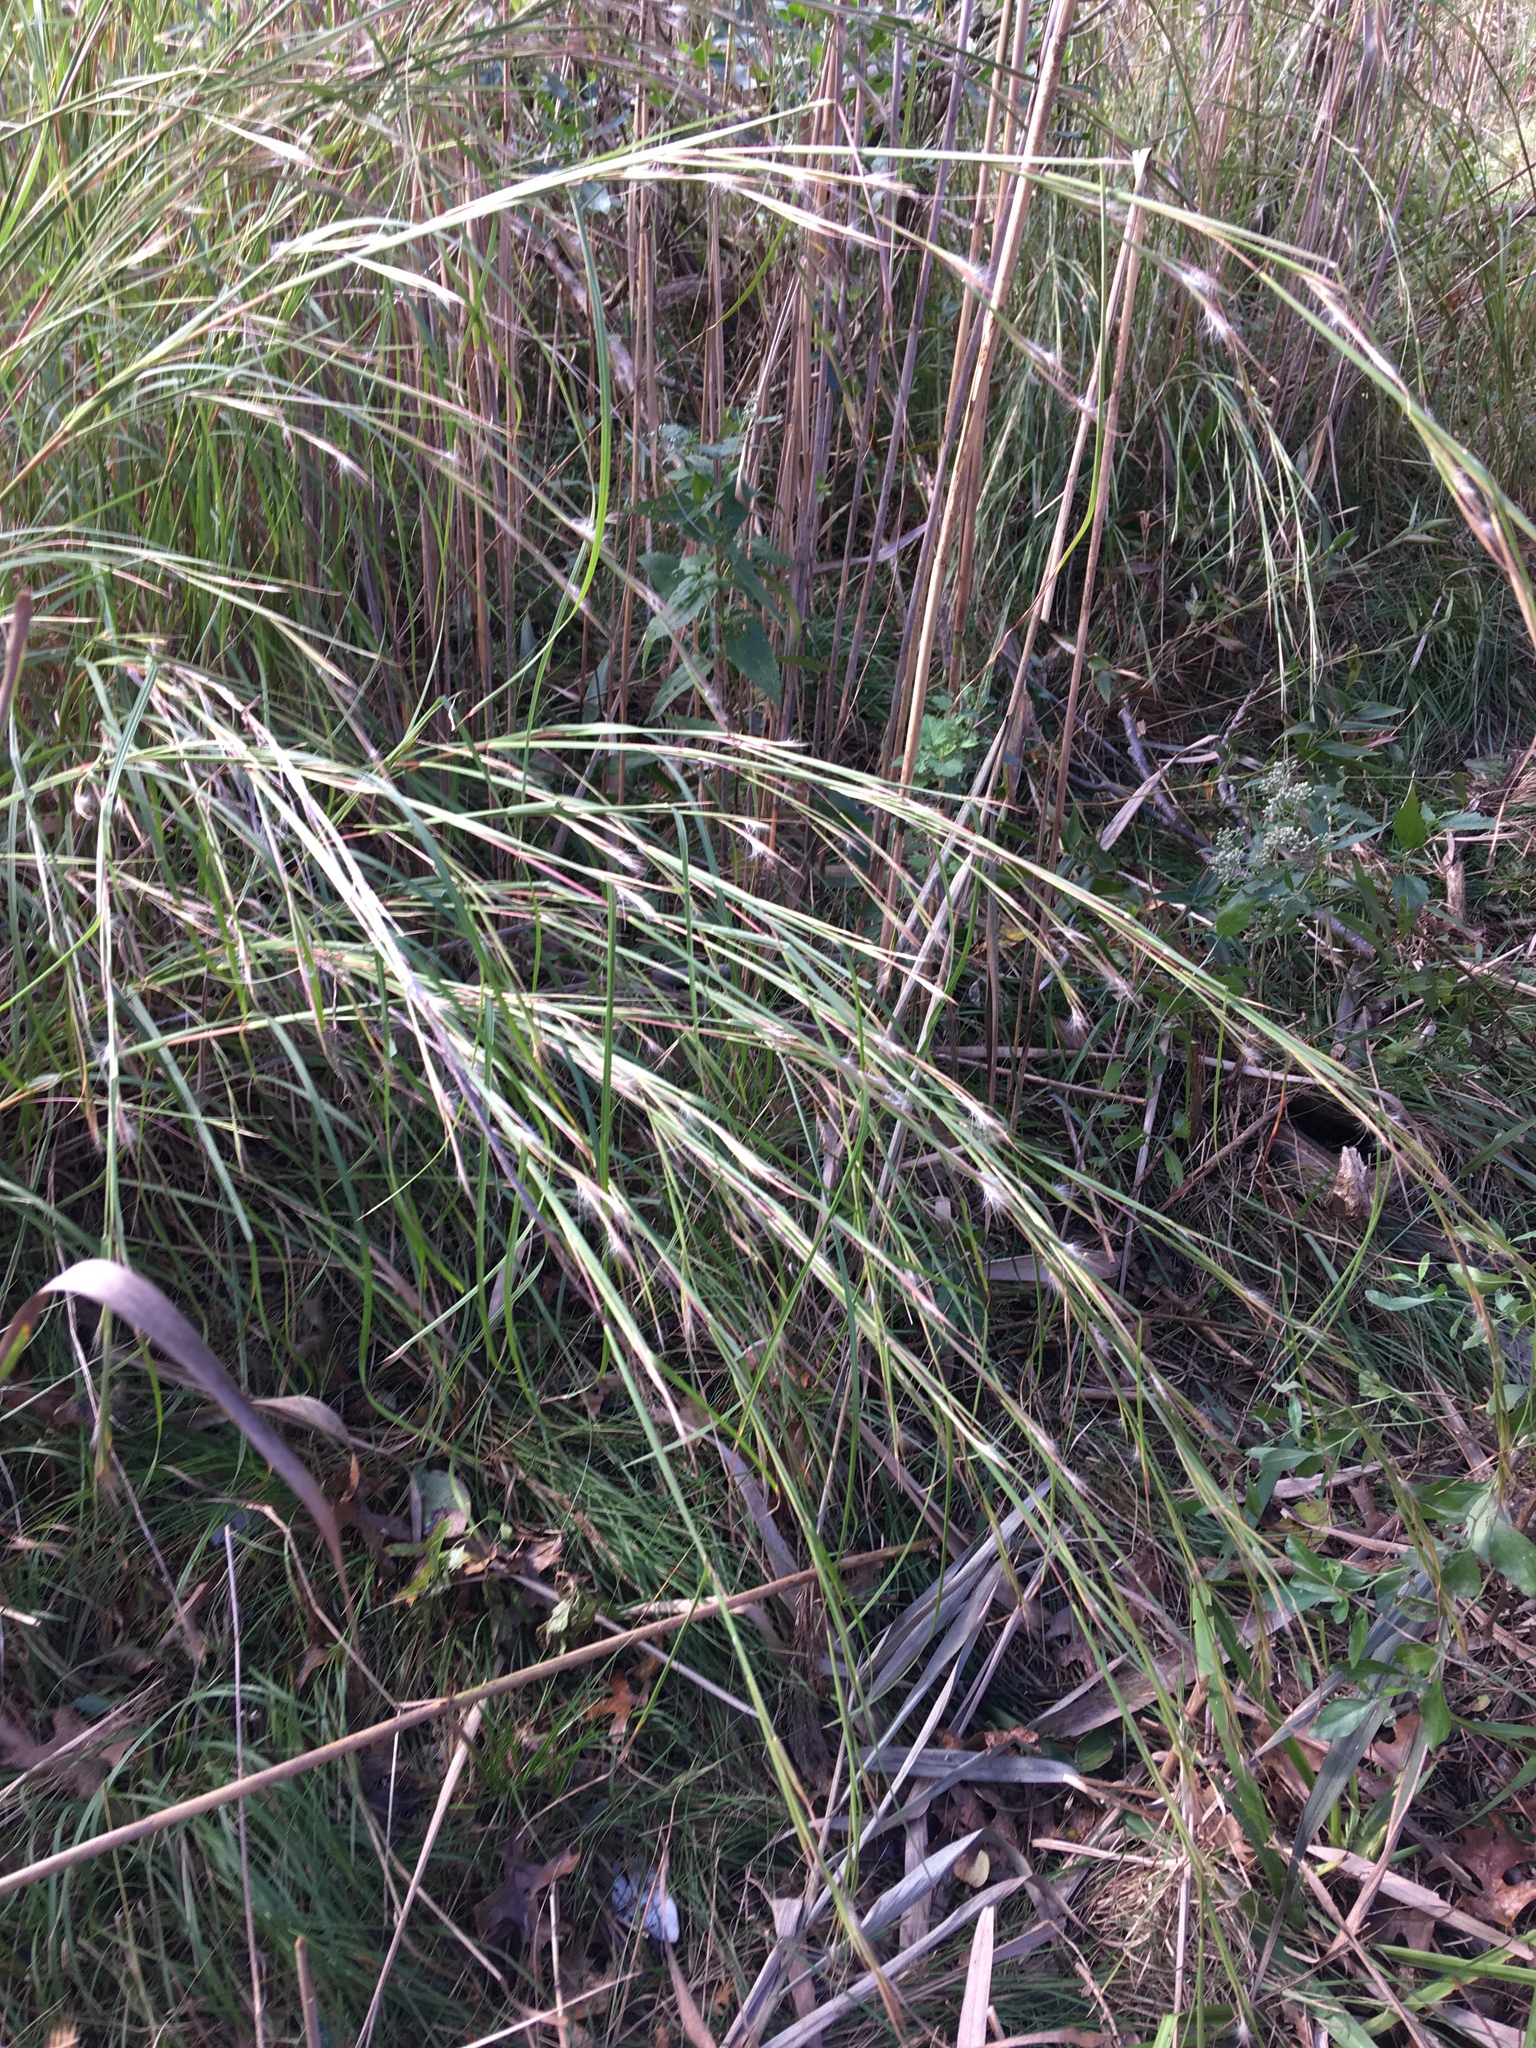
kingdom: Plantae
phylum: Tracheophyta
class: Liliopsida
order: Poales
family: Poaceae
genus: Schizachyrium
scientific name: Schizachyrium scoparium
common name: Little bluestem
